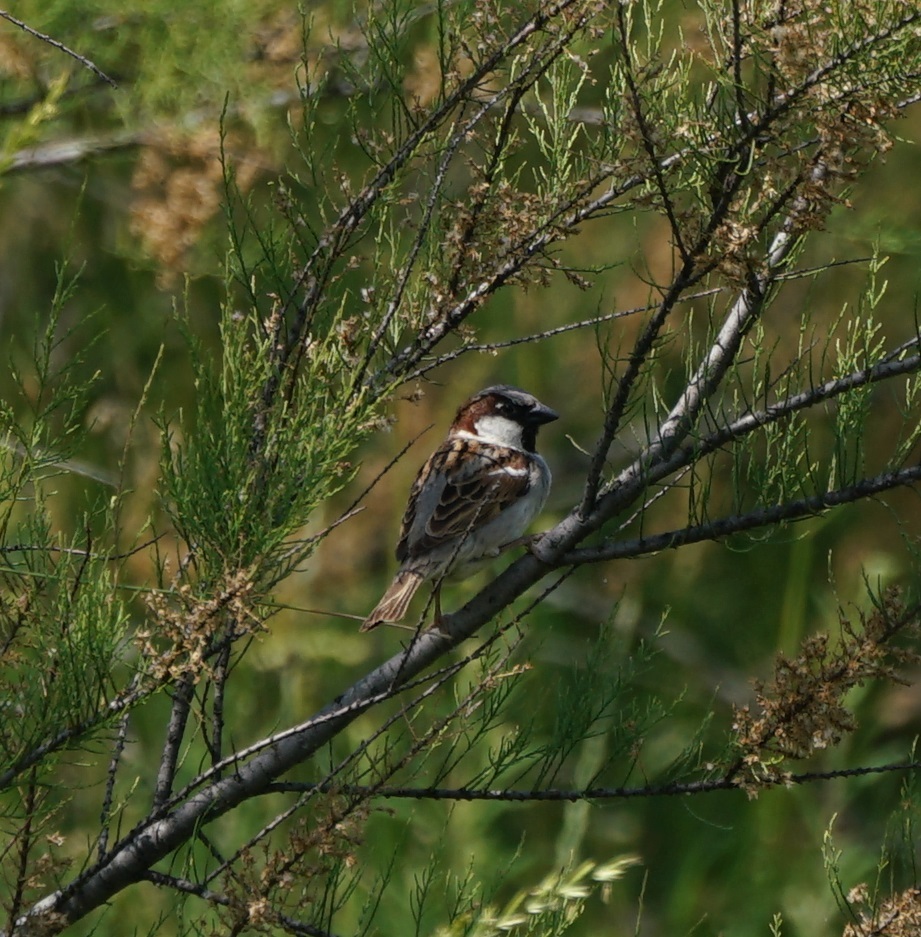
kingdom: Animalia
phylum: Chordata
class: Aves
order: Passeriformes
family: Passeridae
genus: Passer
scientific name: Passer domesticus
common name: House sparrow
